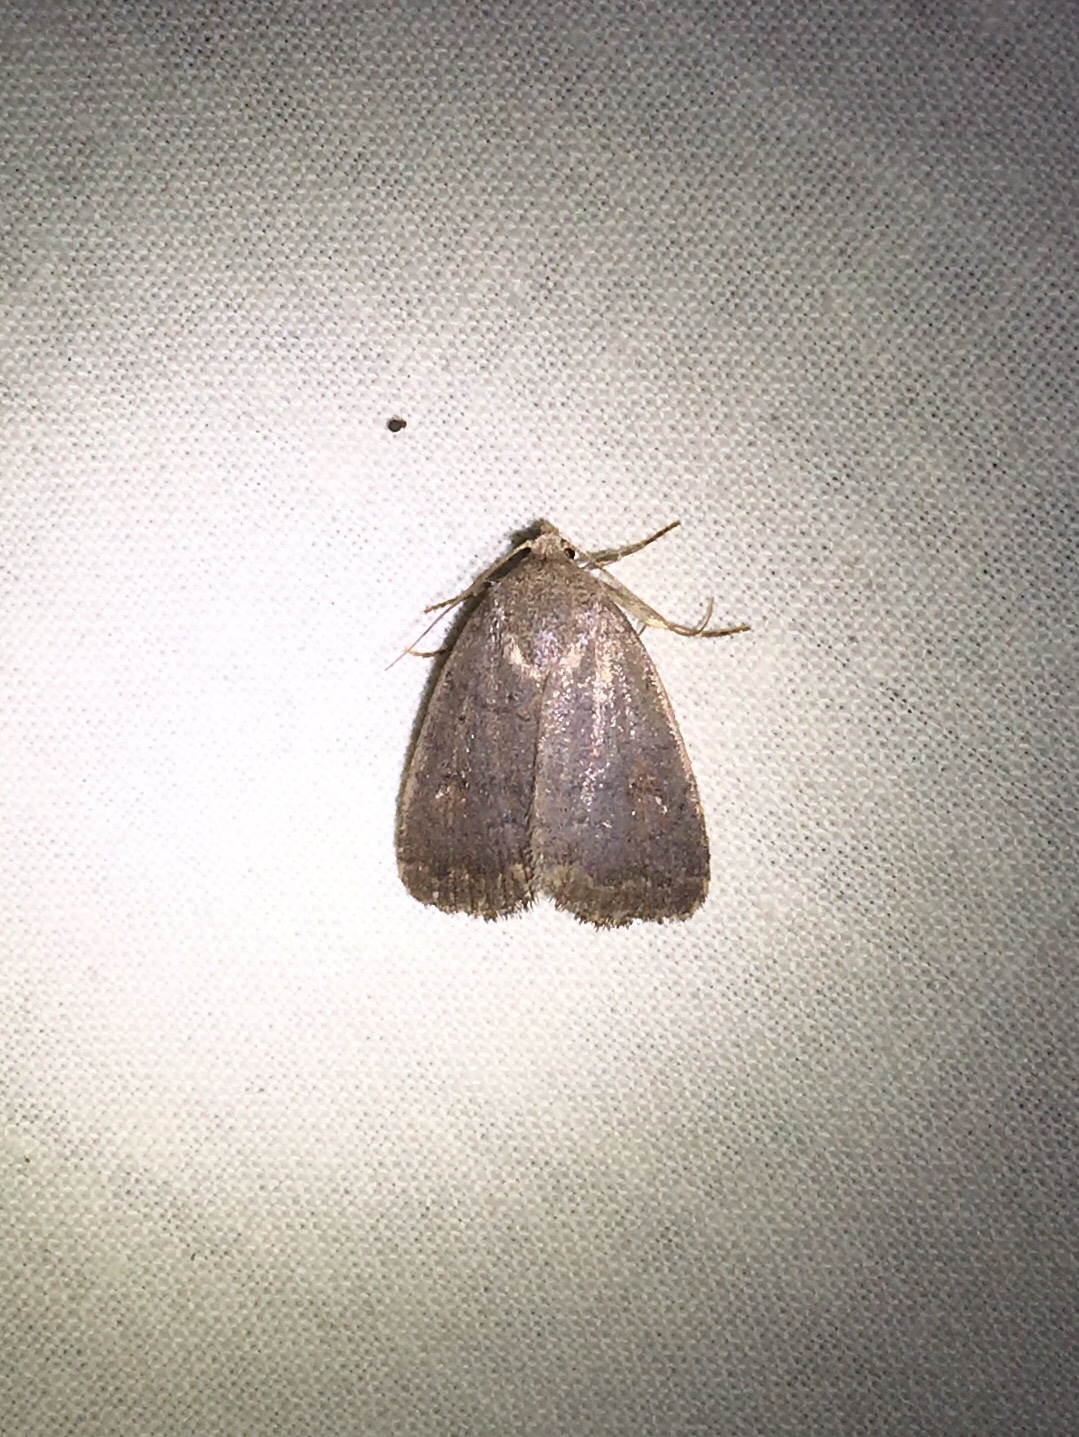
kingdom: Animalia
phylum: Arthropoda
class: Insecta
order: Lepidoptera
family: Noctuidae
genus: Athetis
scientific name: Athetis tarda
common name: Slowpoke moth
